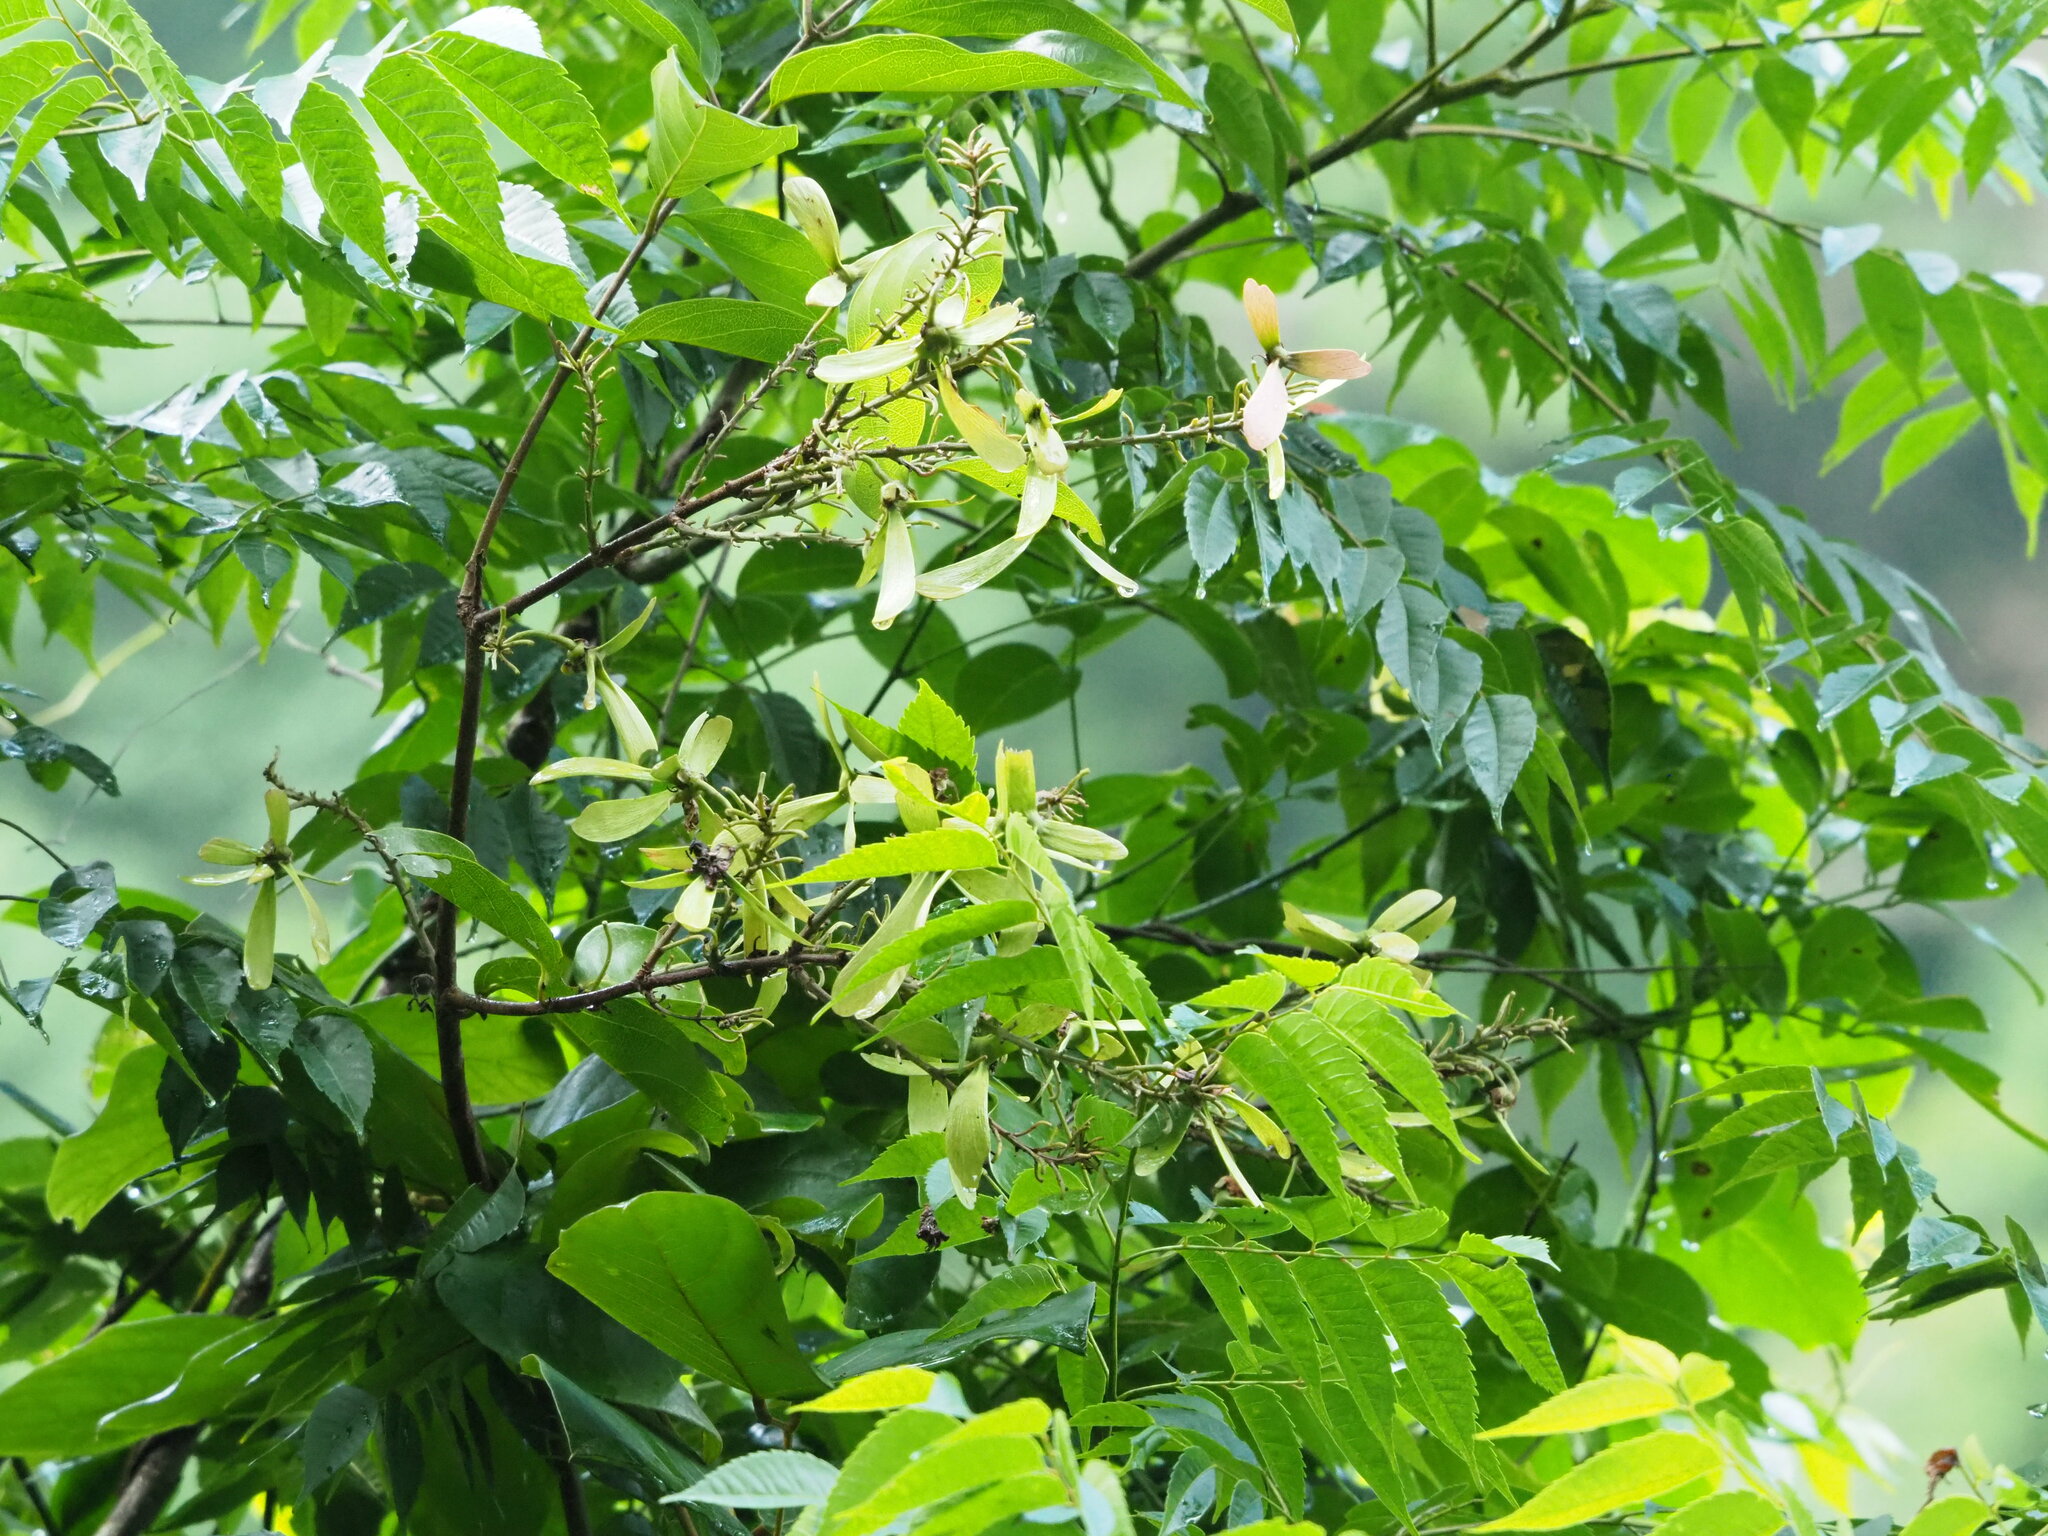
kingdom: Plantae
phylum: Tracheophyta
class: Magnoliopsida
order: Malpighiales
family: Malpighiaceae
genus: Hiptage
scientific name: Hiptage benghalensis
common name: Hiptage
